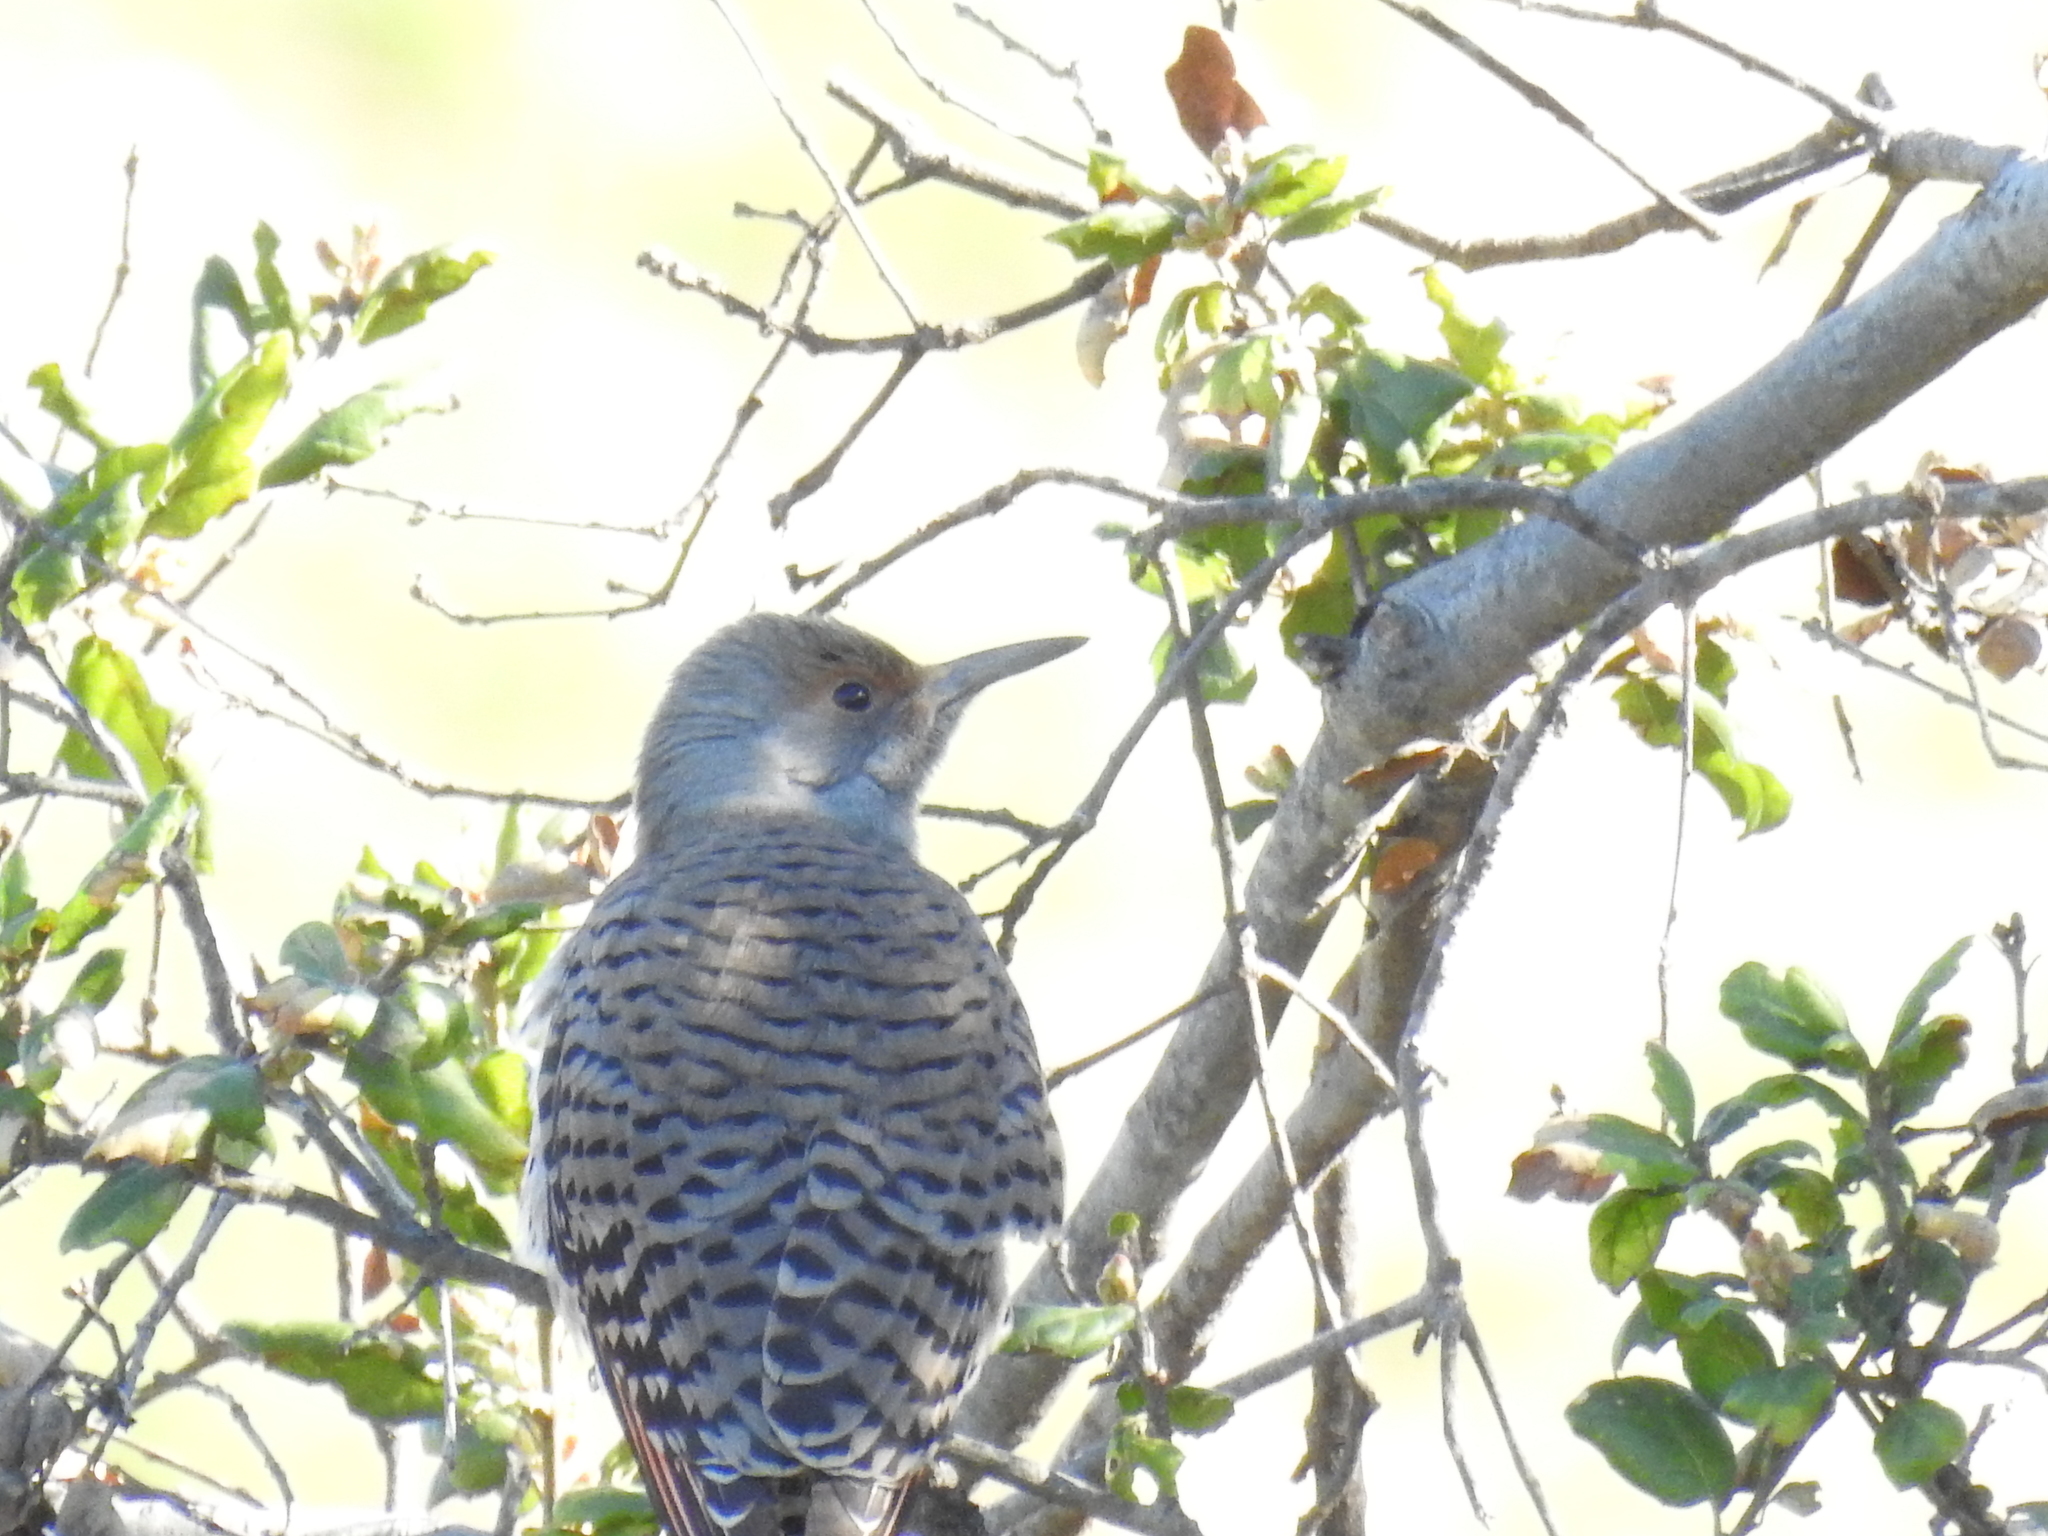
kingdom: Animalia
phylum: Chordata
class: Aves
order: Piciformes
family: Picidae
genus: Colaptes
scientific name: Colaptes auratus
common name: Northern flicker
